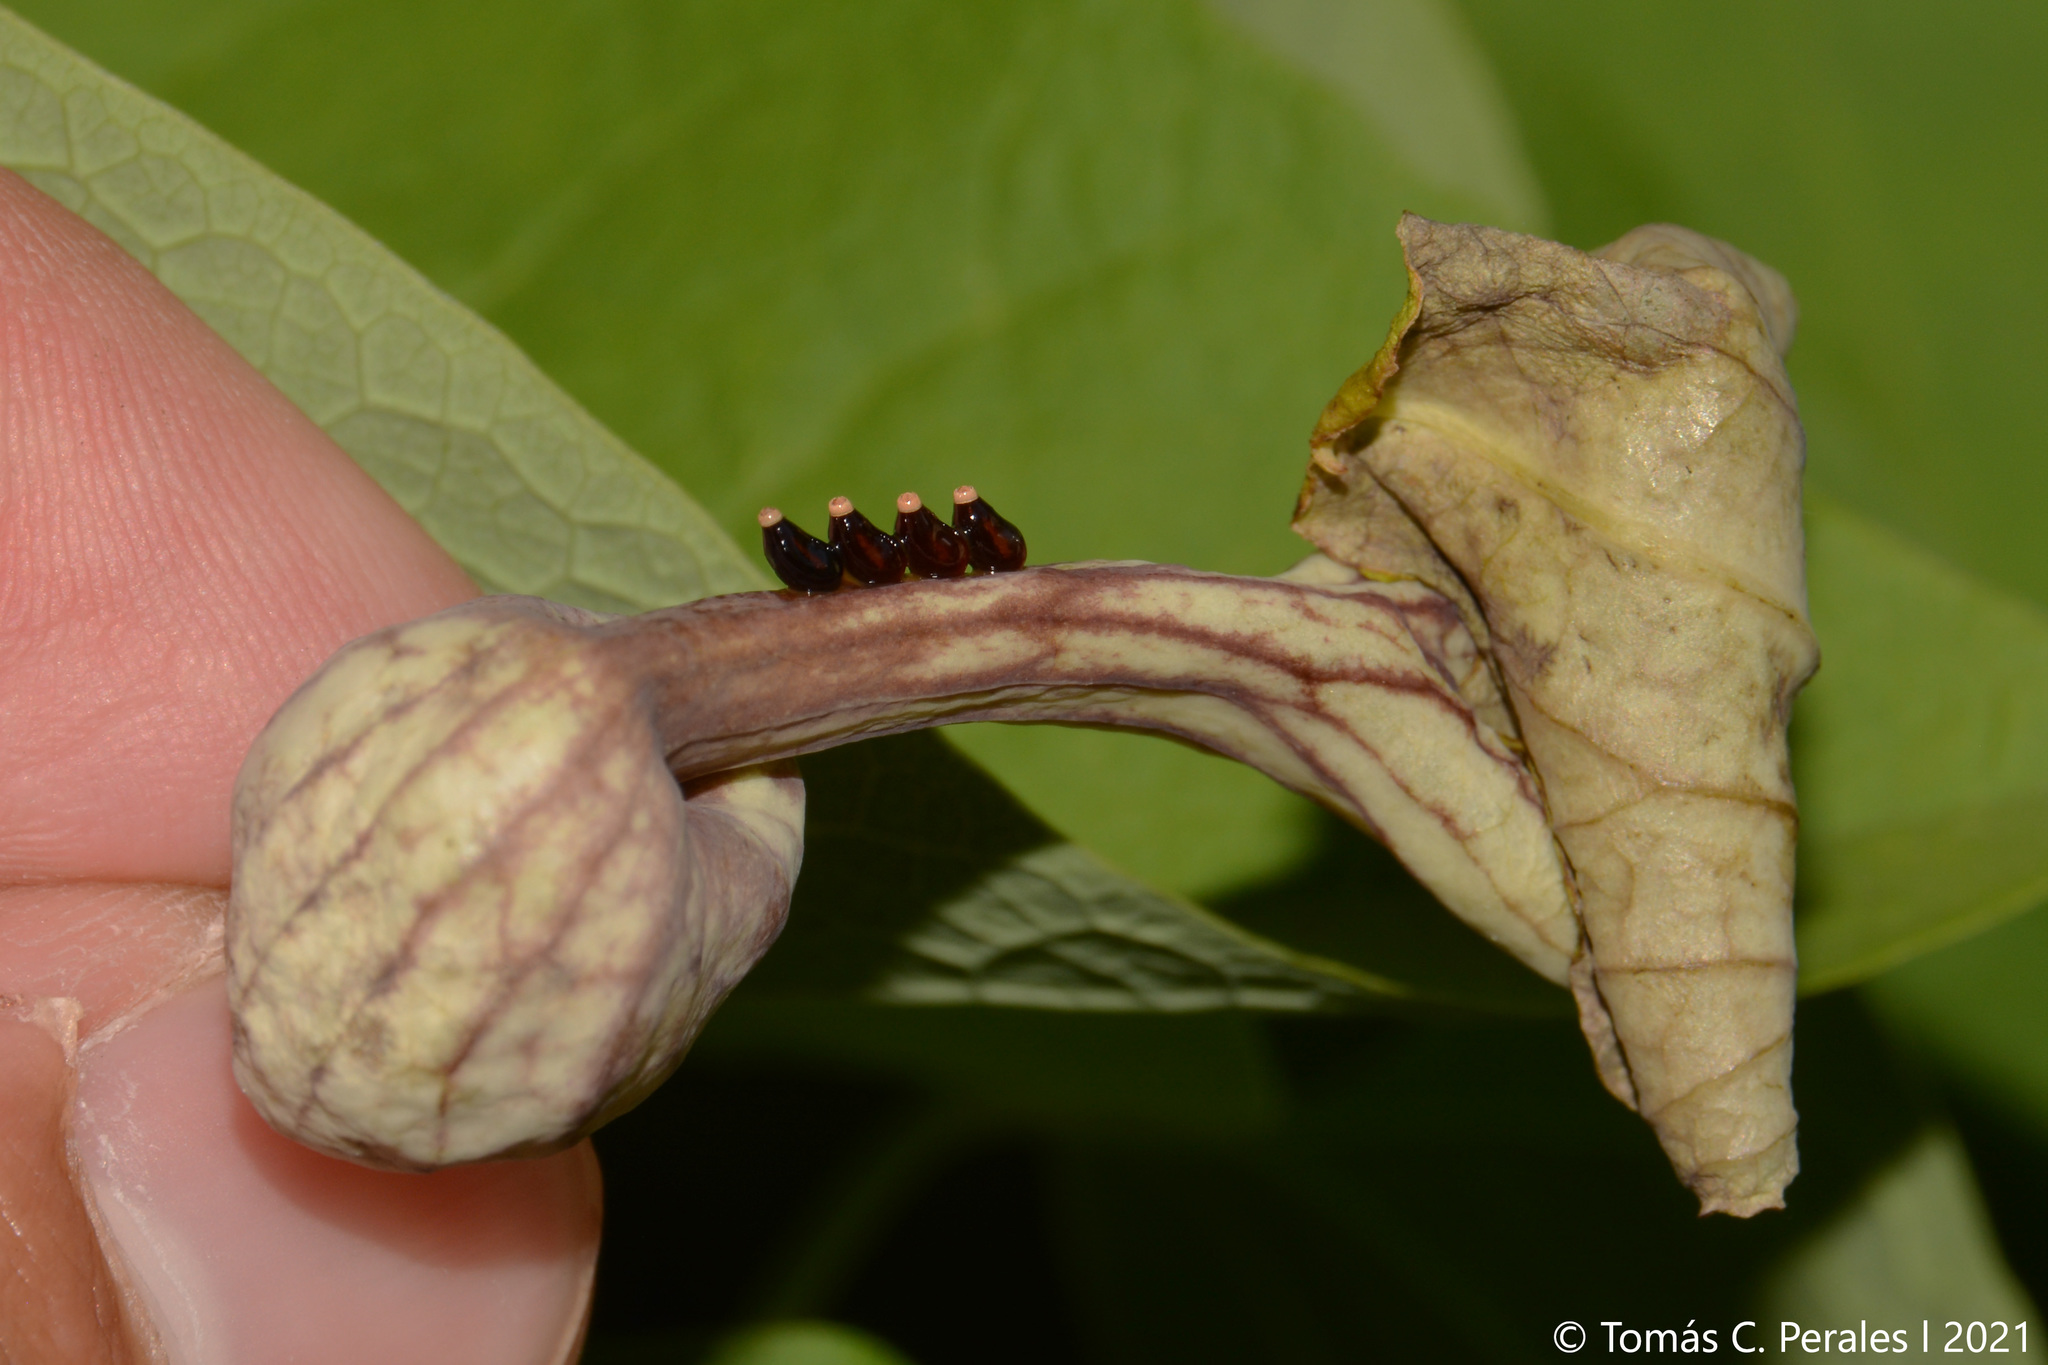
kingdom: Plantae
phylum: Tracheophyta
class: Magnoliopsida
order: Piperales
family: Aristolochiaceae
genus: Aristolochia
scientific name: Aristolochia argentina
